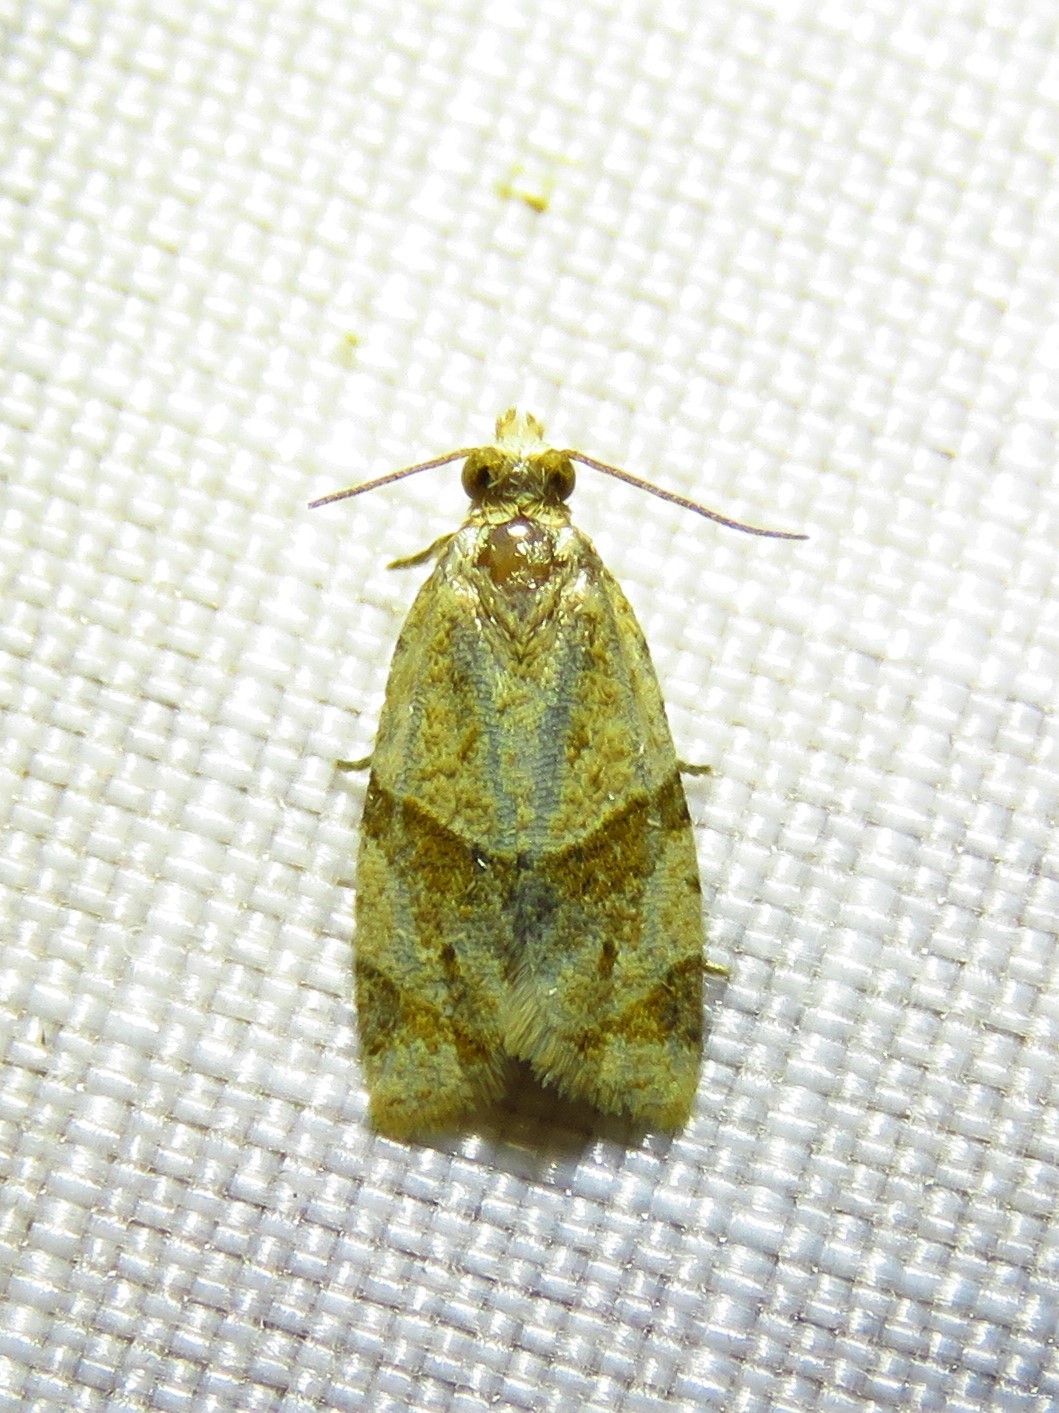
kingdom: Animalia
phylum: Arthropoda
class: Insecta
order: Lepidoptera
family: Tortricidae
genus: Clepsis
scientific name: Clepsis peritana
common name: Garden tortrix
